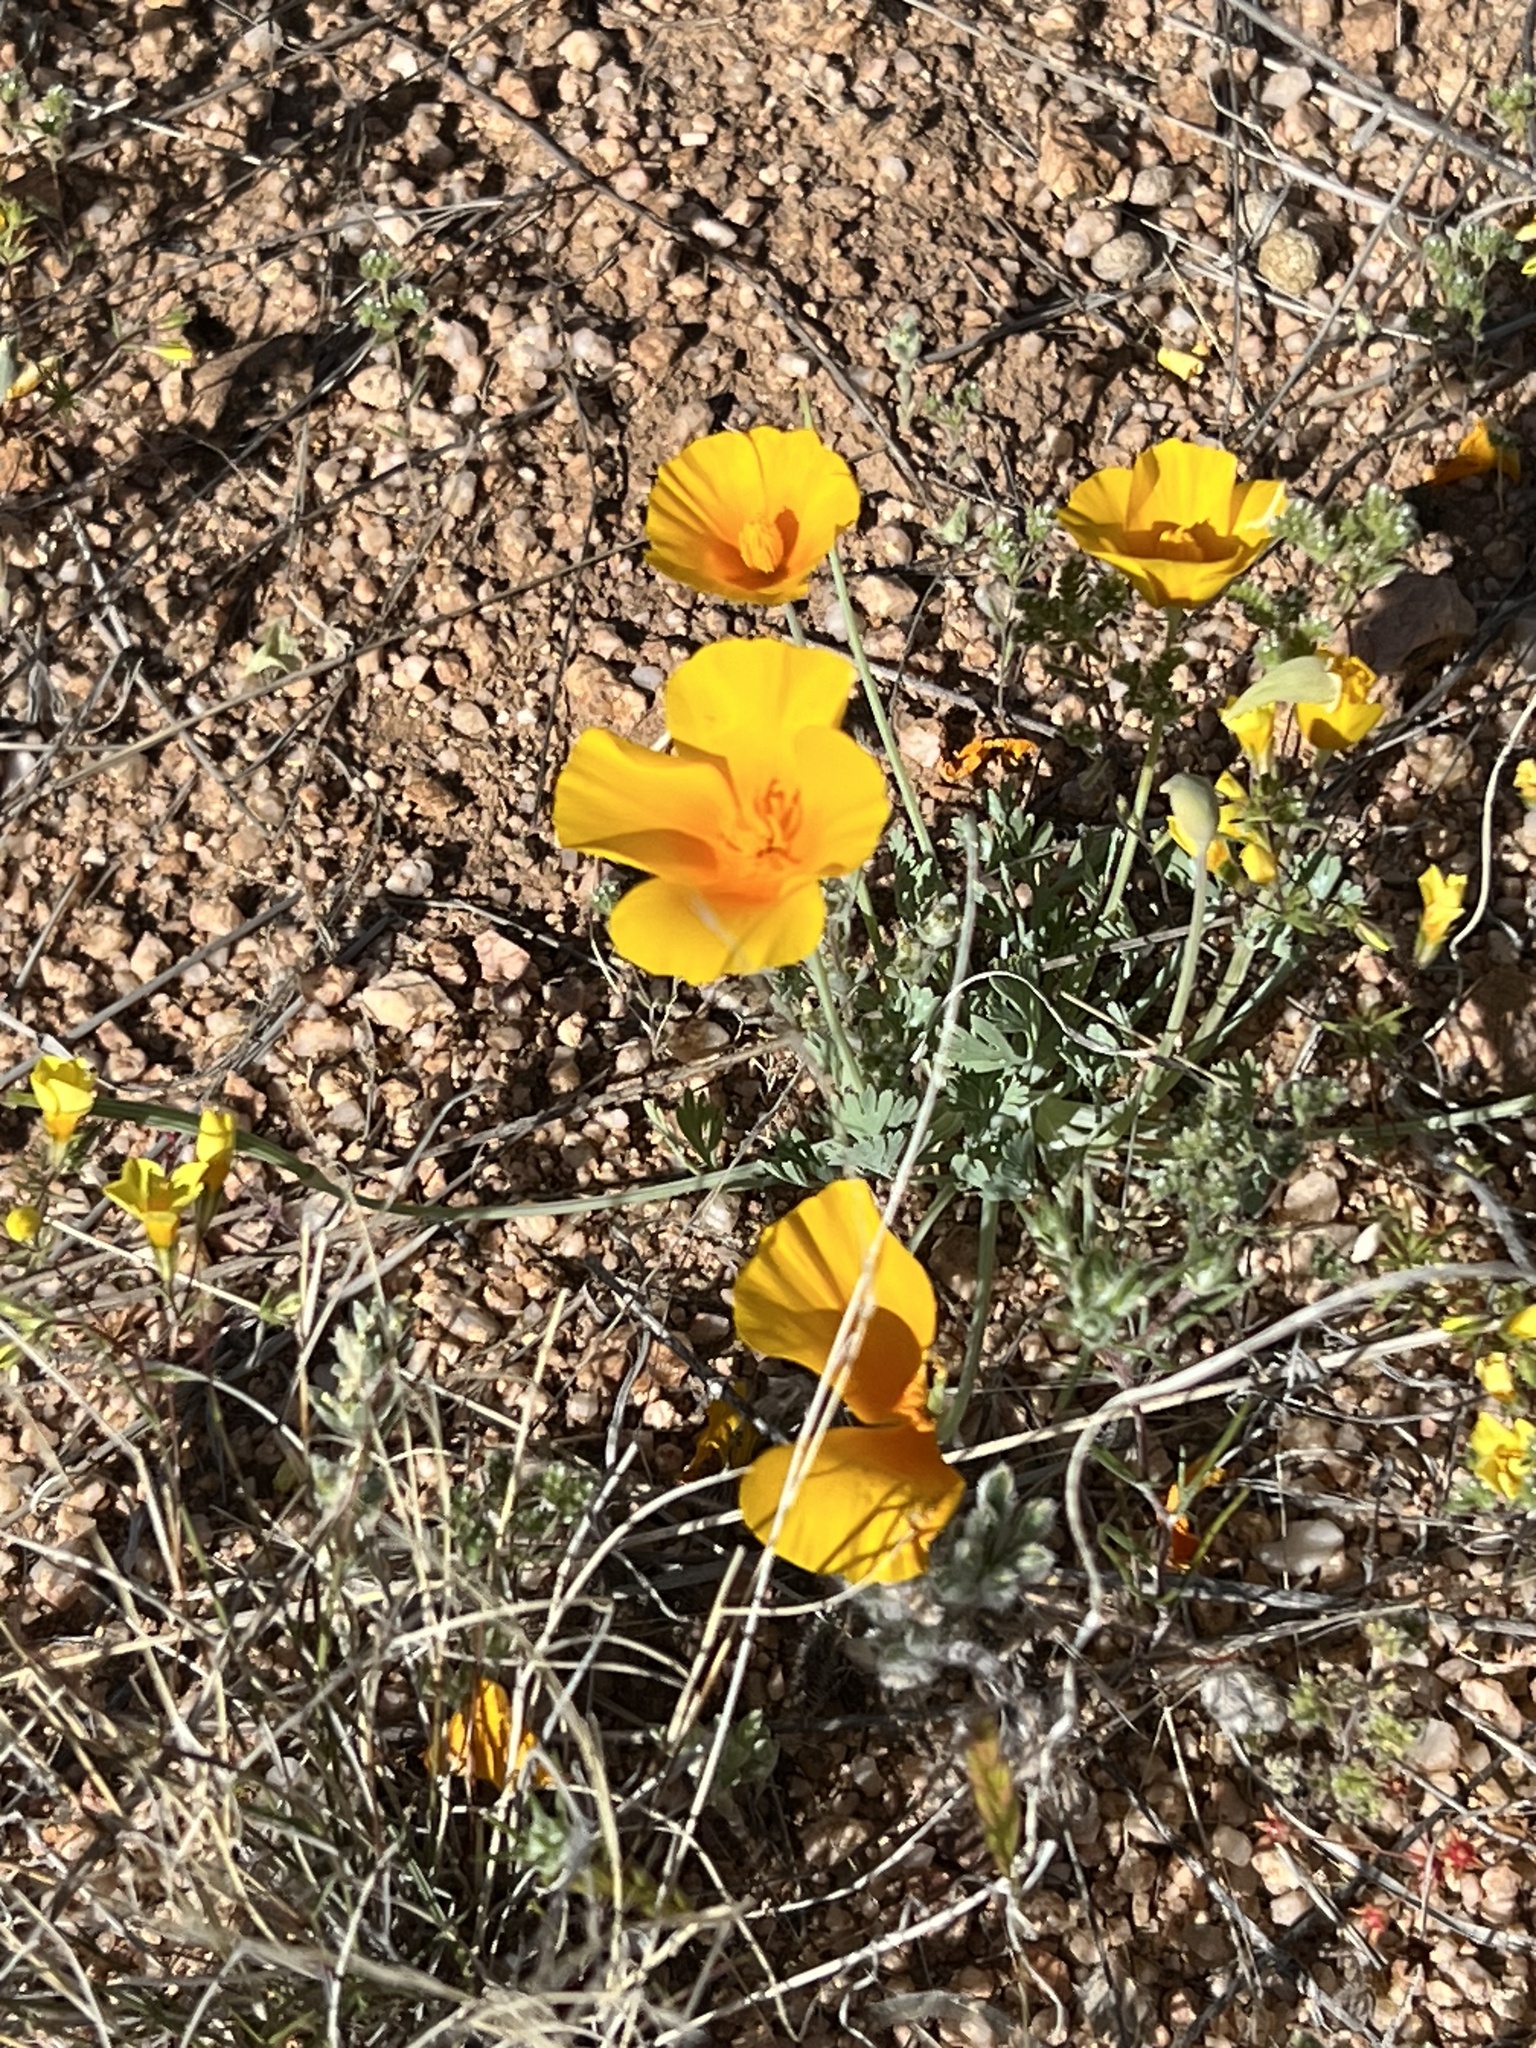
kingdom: Plantae
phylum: Tracheophyta
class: Magnoliopsida
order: Ranunculales
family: Papaveraceae
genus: Eschscholzia
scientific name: Eschscholzia californica
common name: California poppy
